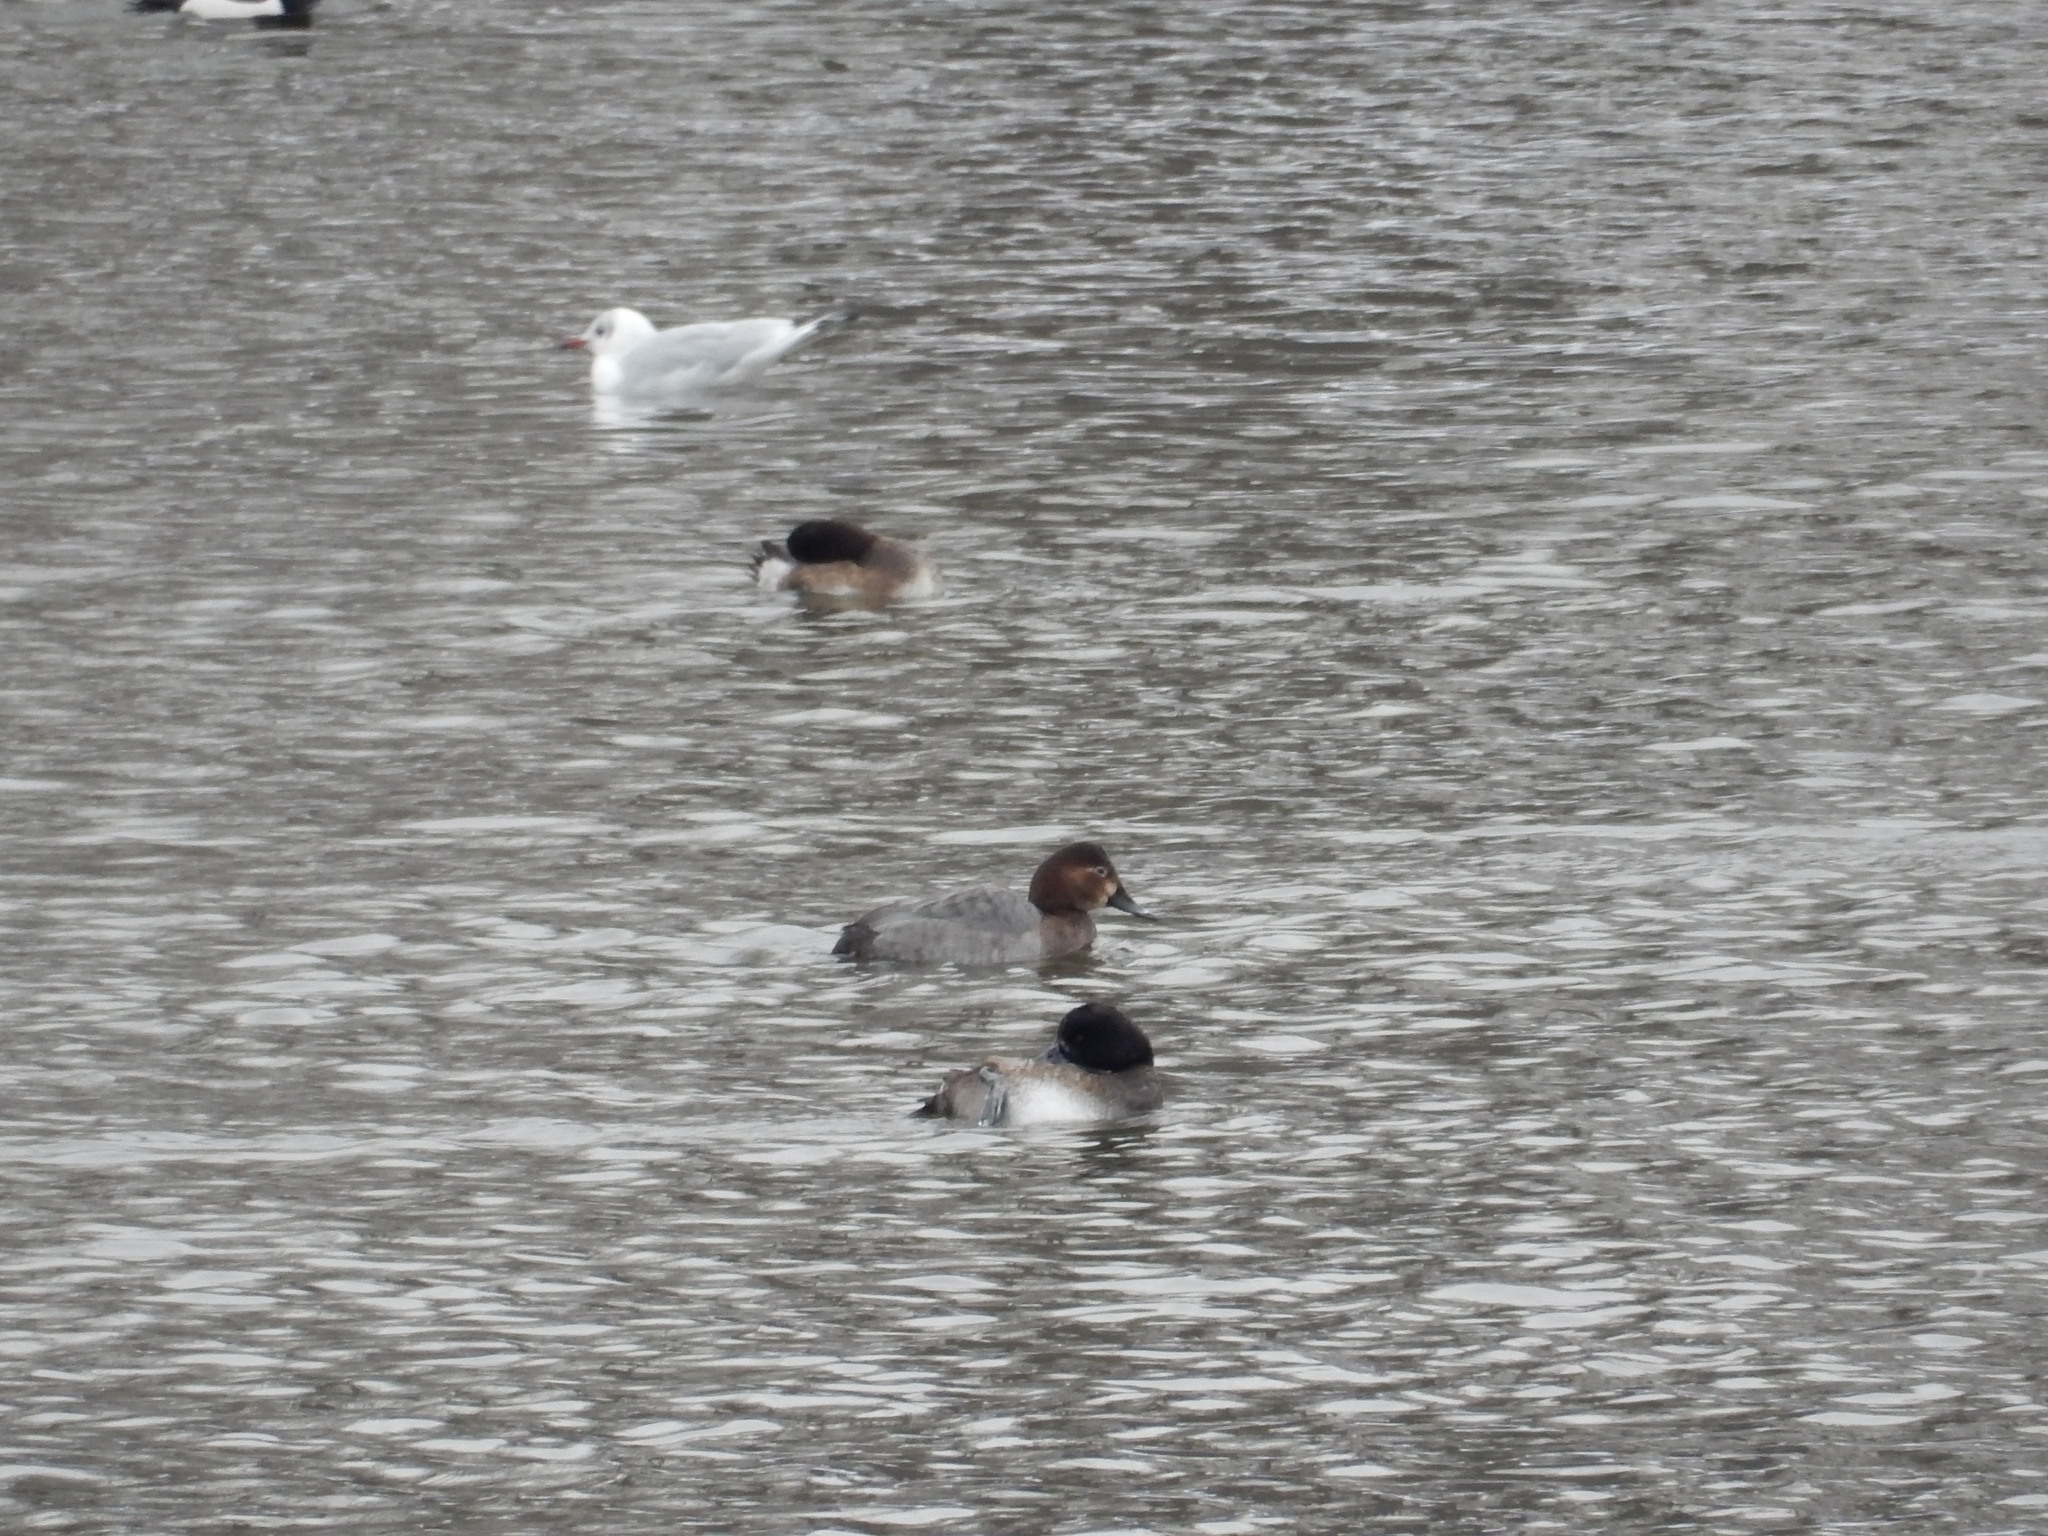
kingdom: Animalia
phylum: Chordata
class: Aves
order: Anseriformes
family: Anatidae
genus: Aythya
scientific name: Aythya ferina
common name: Common pochard
